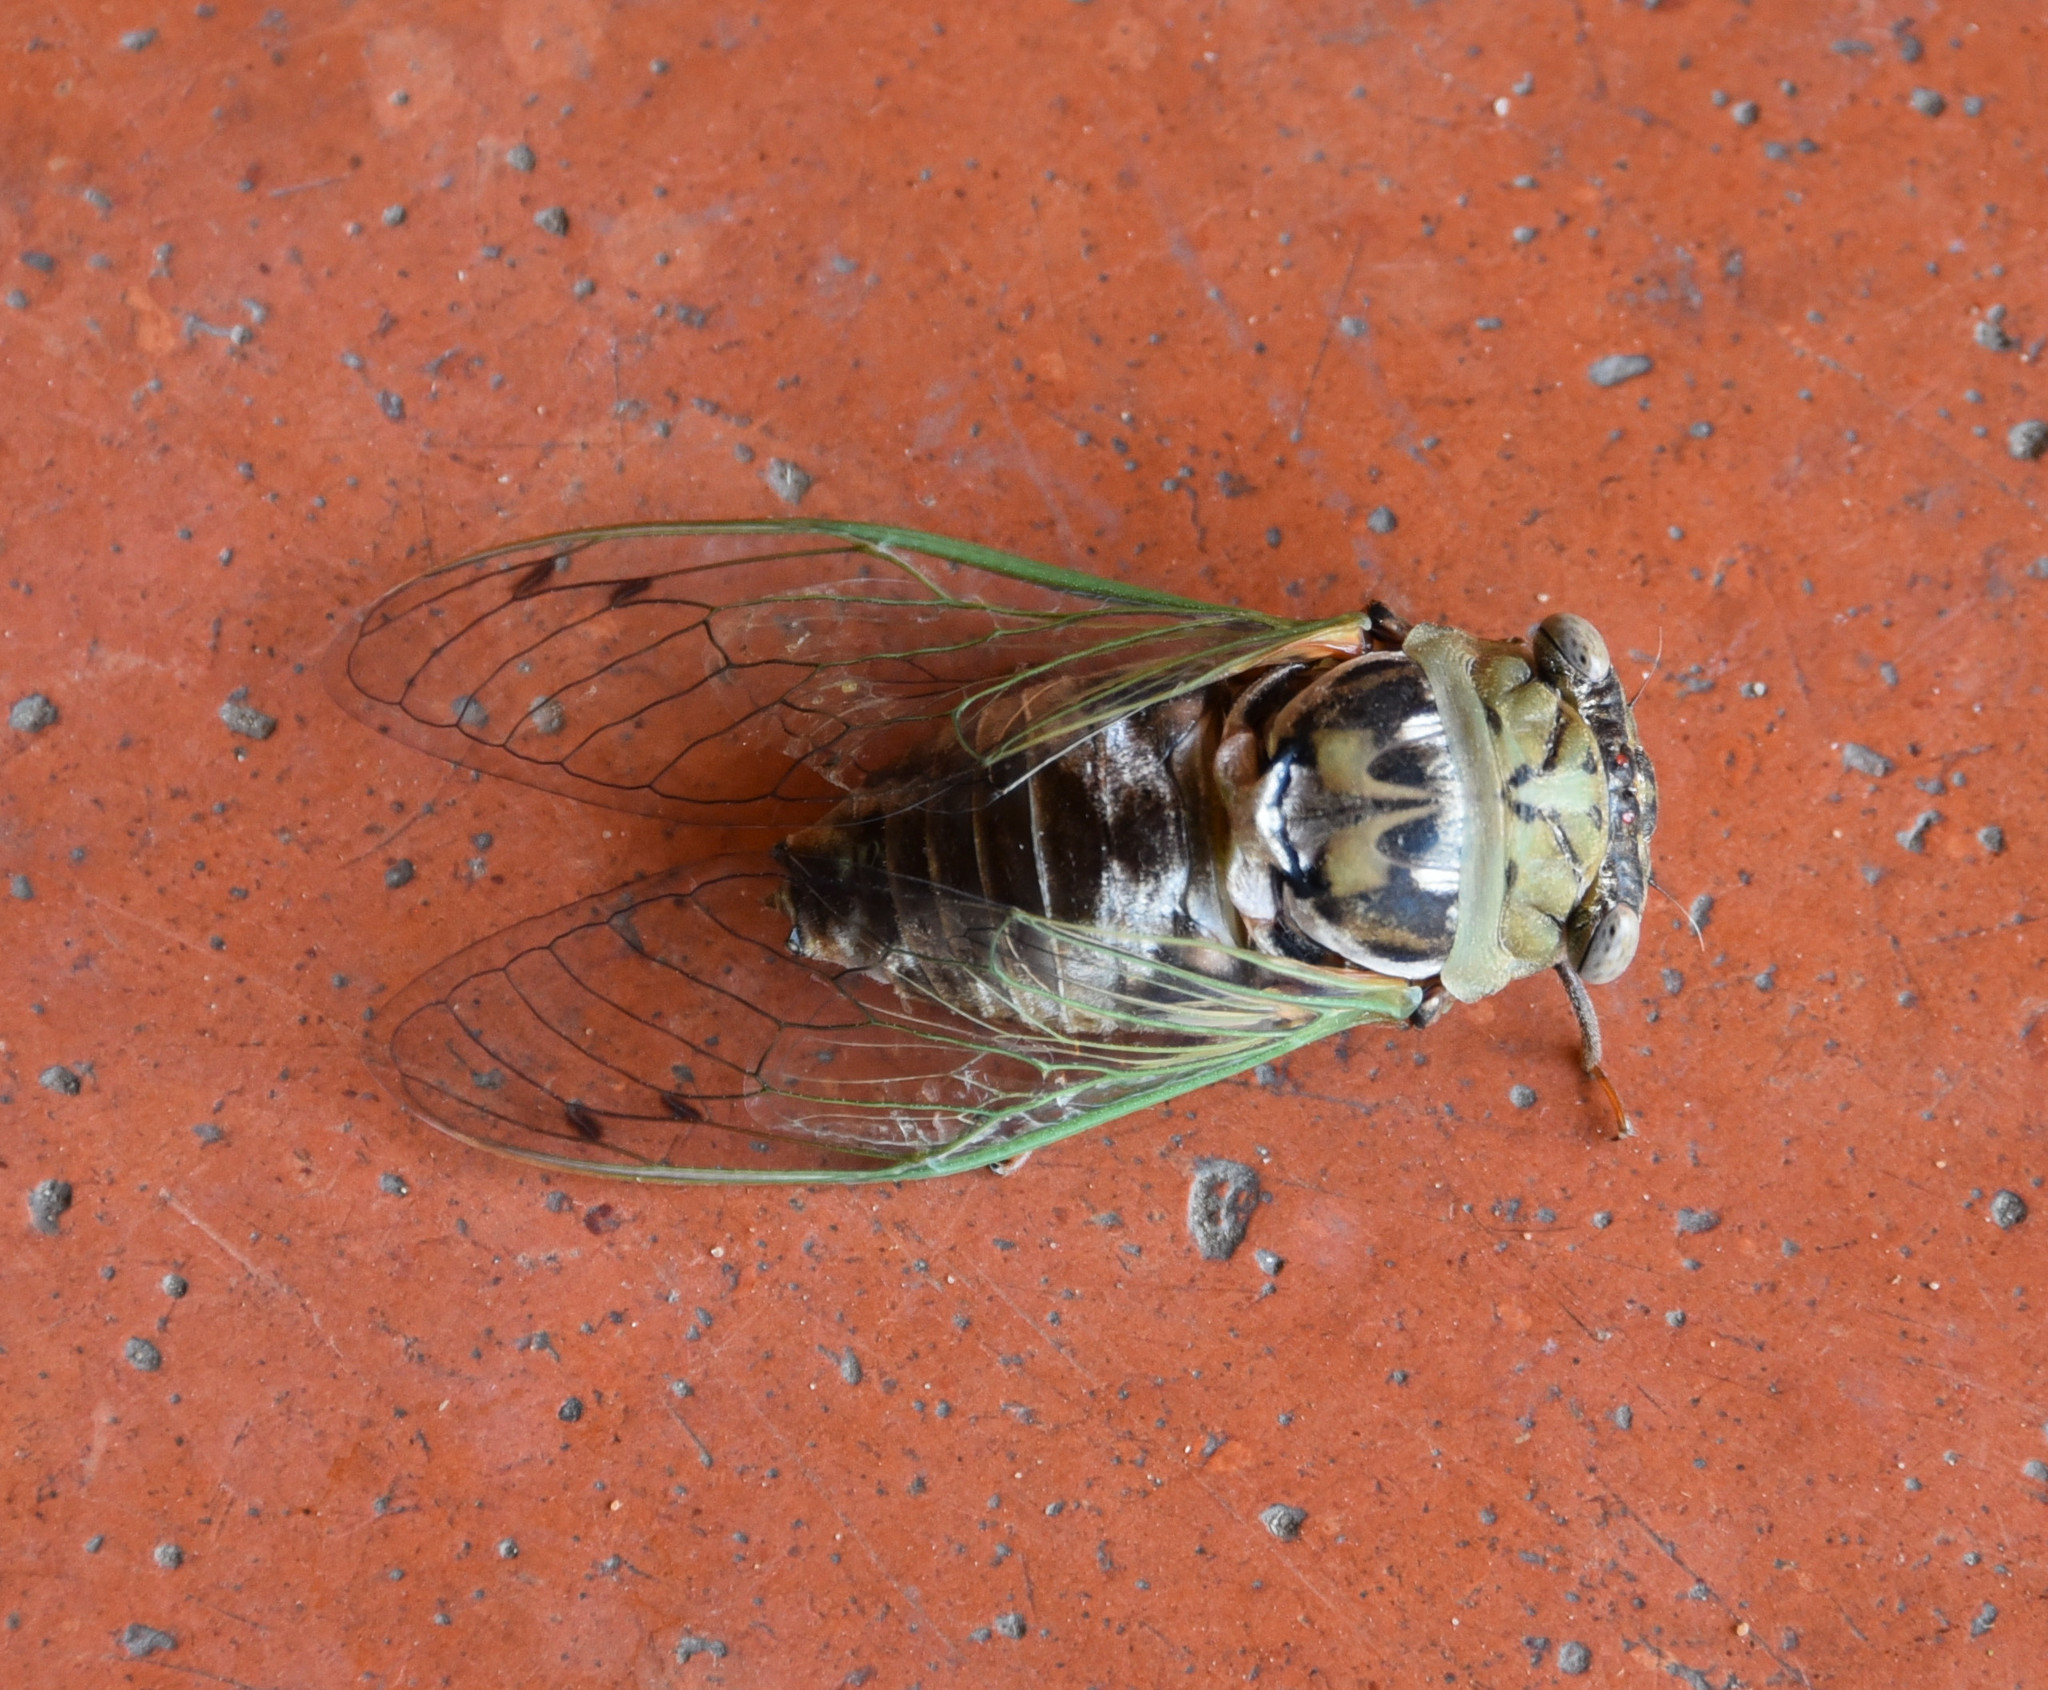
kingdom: Animalia
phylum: Arthropoda
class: Insecta
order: Hemiptera
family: Cicadidae
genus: Megatibicen
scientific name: Megatibicen resh
